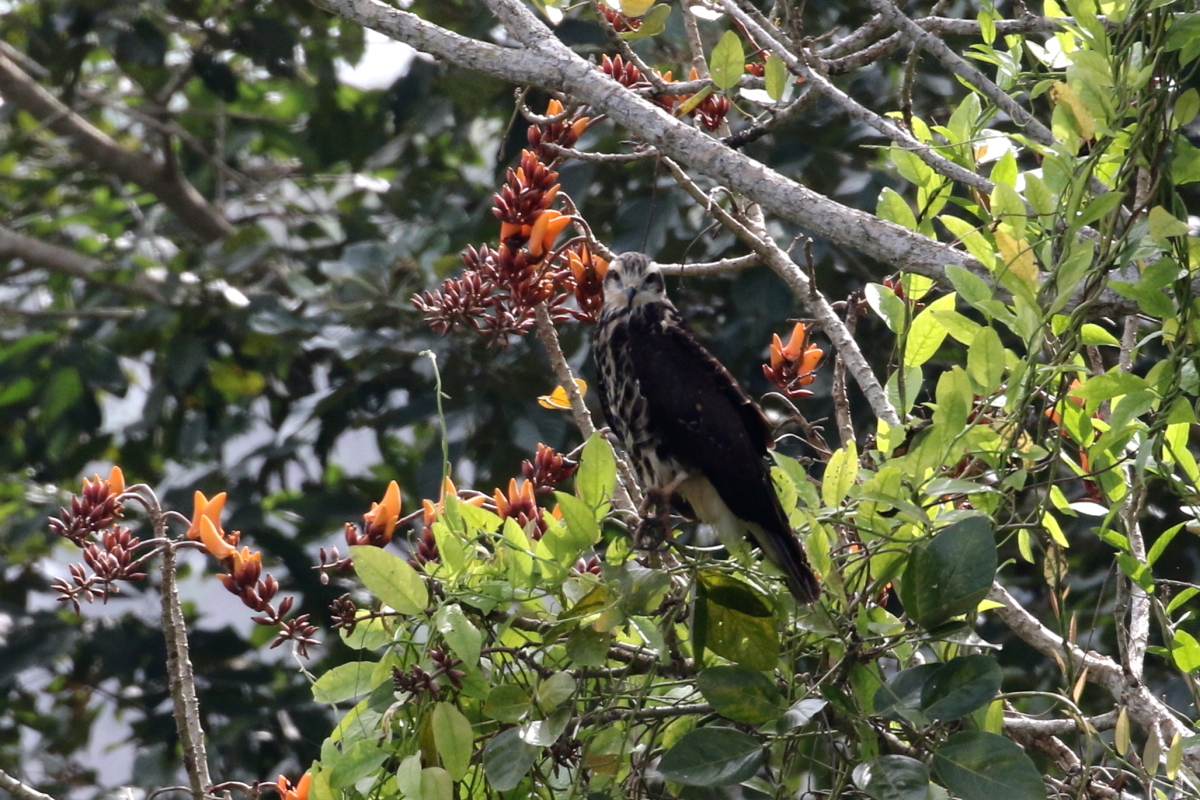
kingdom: Animalia
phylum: Chordata
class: Aves
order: Accipitriformes
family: Accipitridae
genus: Rostrhamus
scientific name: Rostrhamus sociabilis
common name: Snail kite
